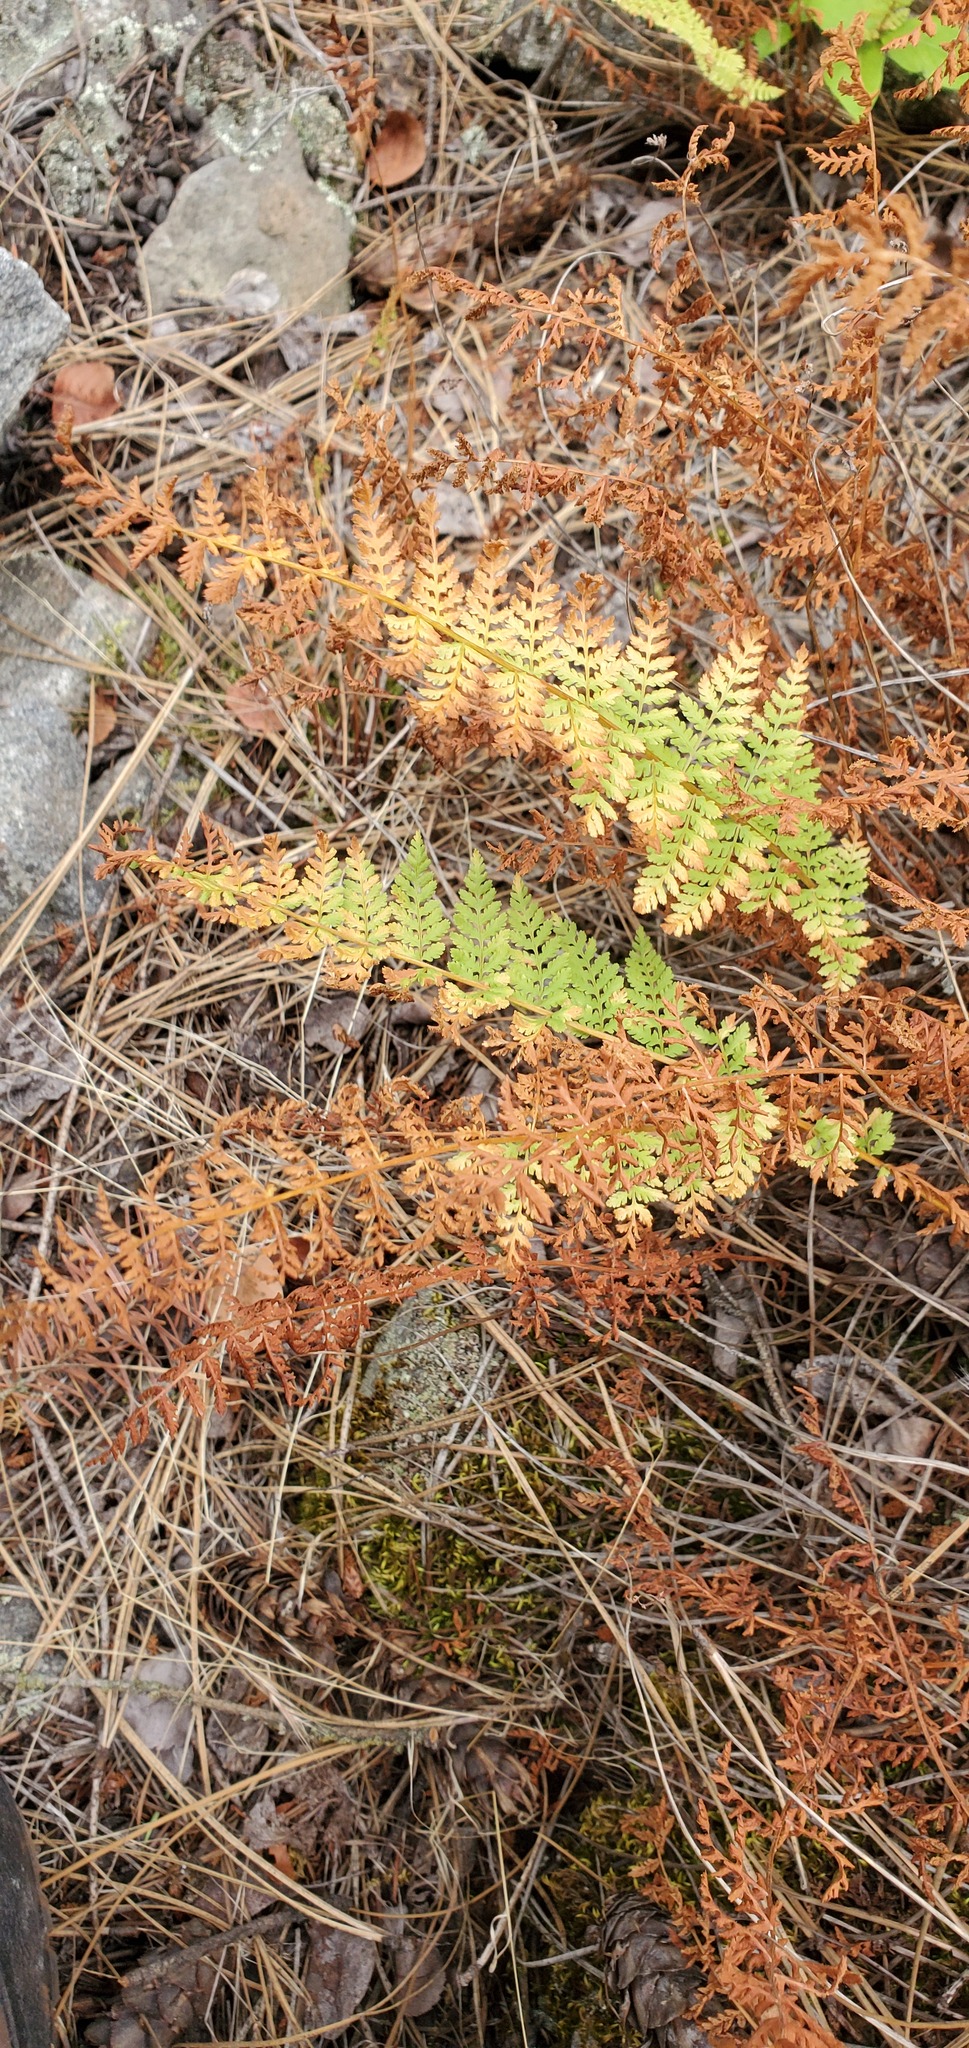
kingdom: Plantae
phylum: Tracheophyta
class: Polypodiopsida
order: Polypodiales
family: Woodsiaceae
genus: Physematium
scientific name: Physematium scopulinum
